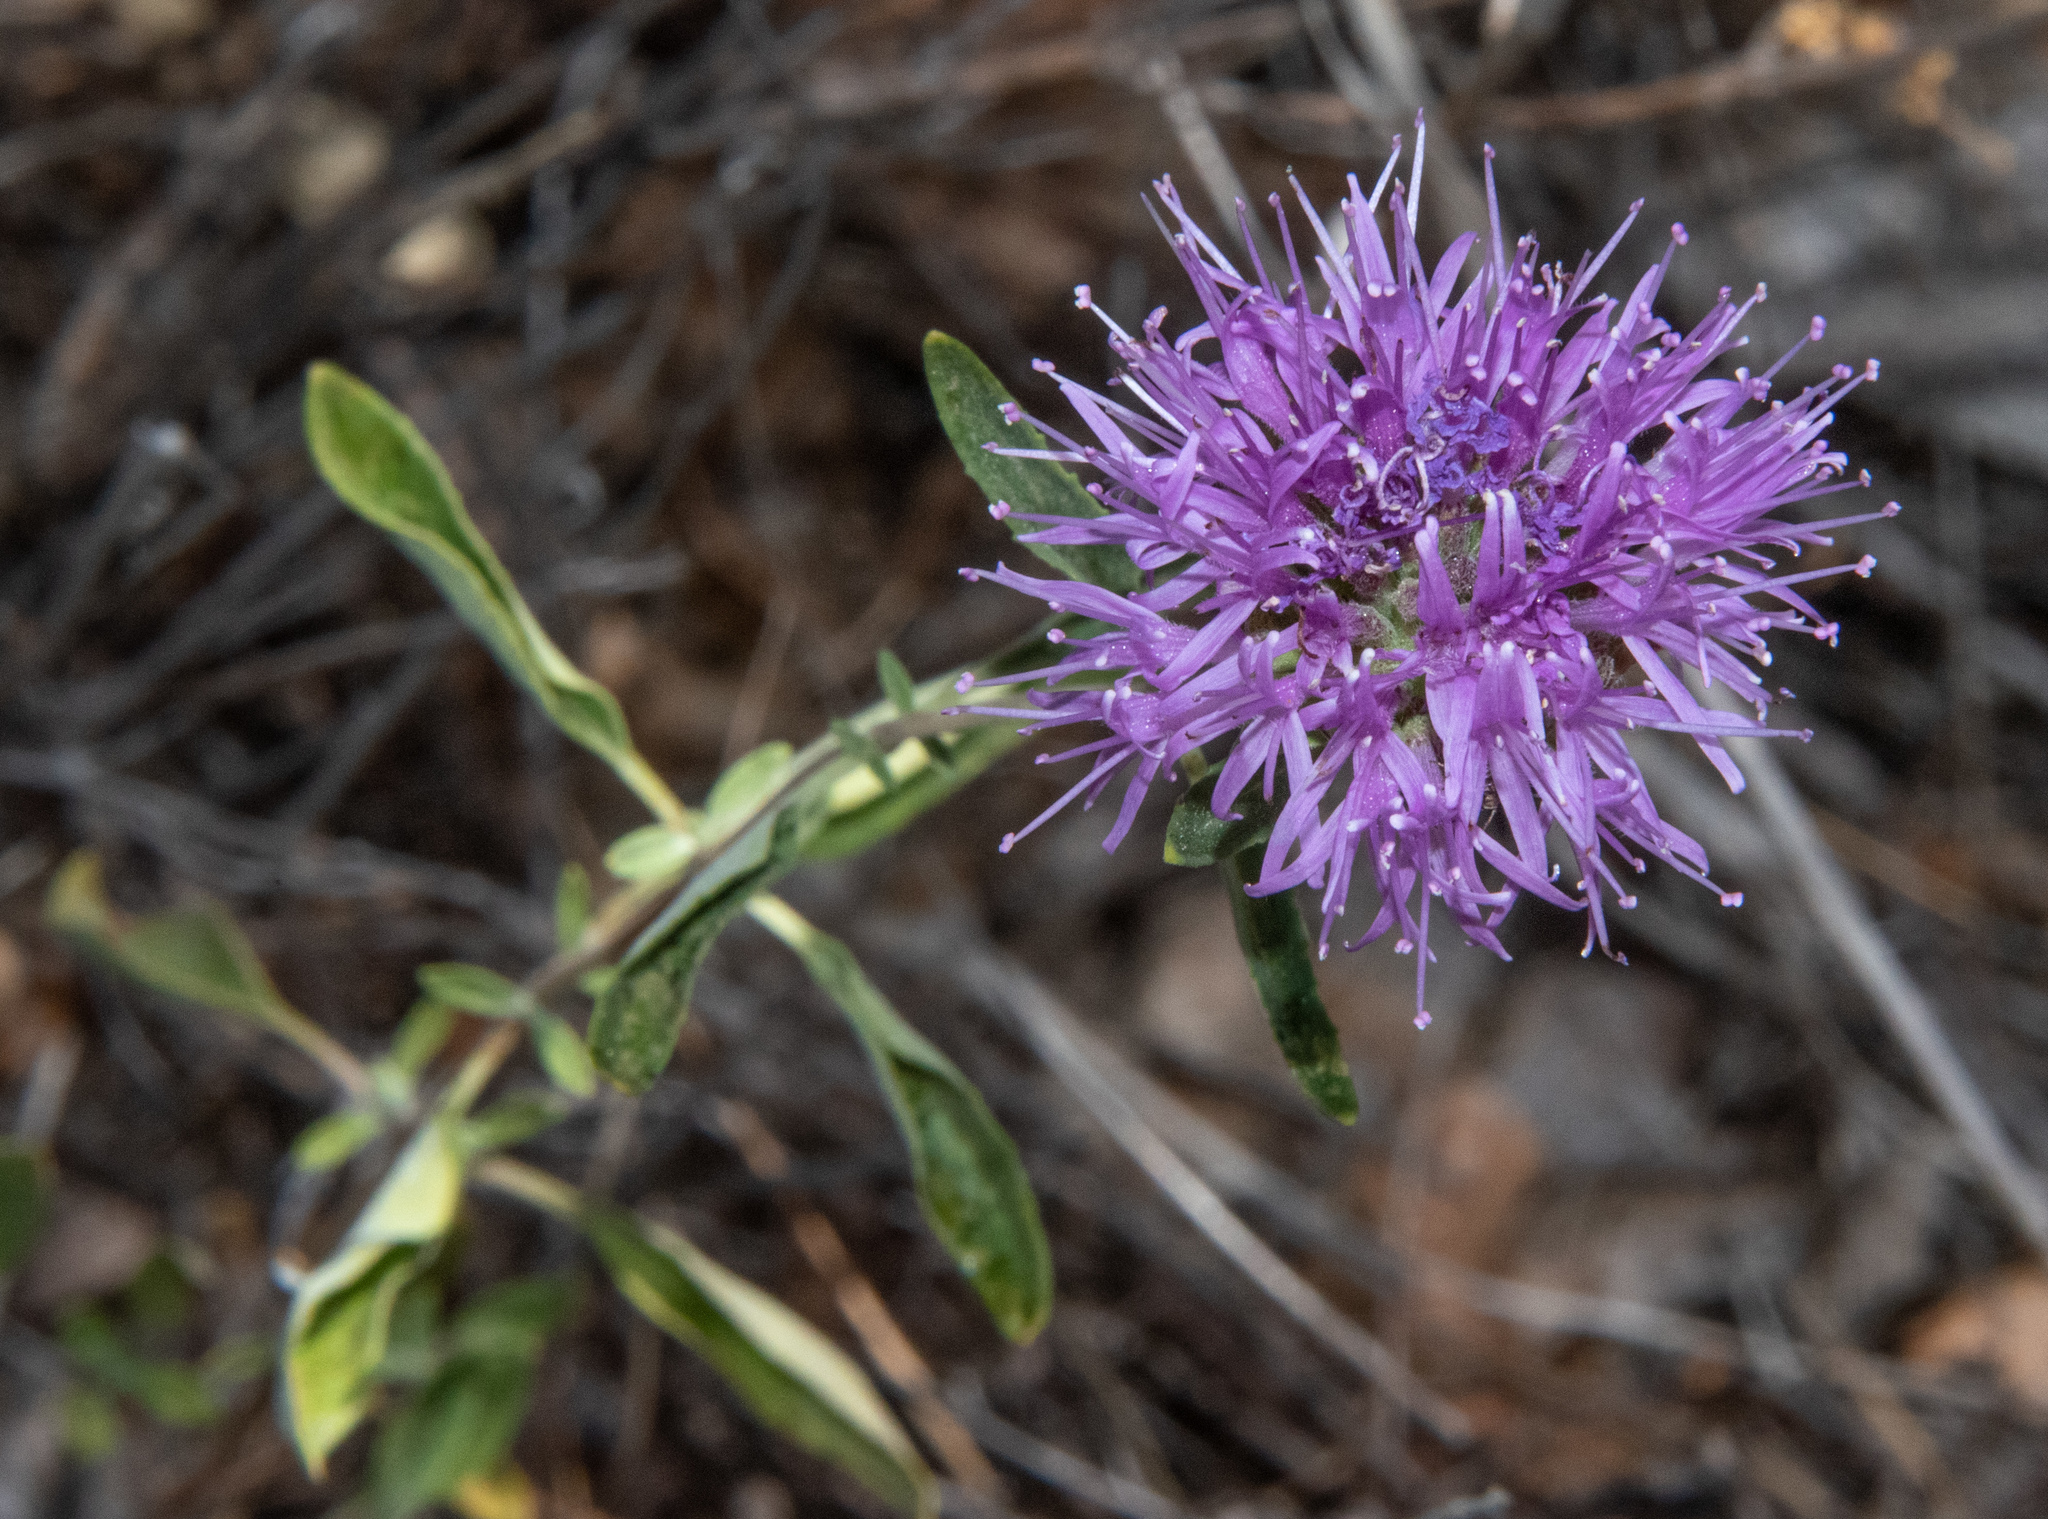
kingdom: Plantae
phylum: Tracheophyta
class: Magnoliopsida
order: Lamiales
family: Lamiaceae
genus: Monardella
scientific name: Monardella odoratissima
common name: Pacific monardella
